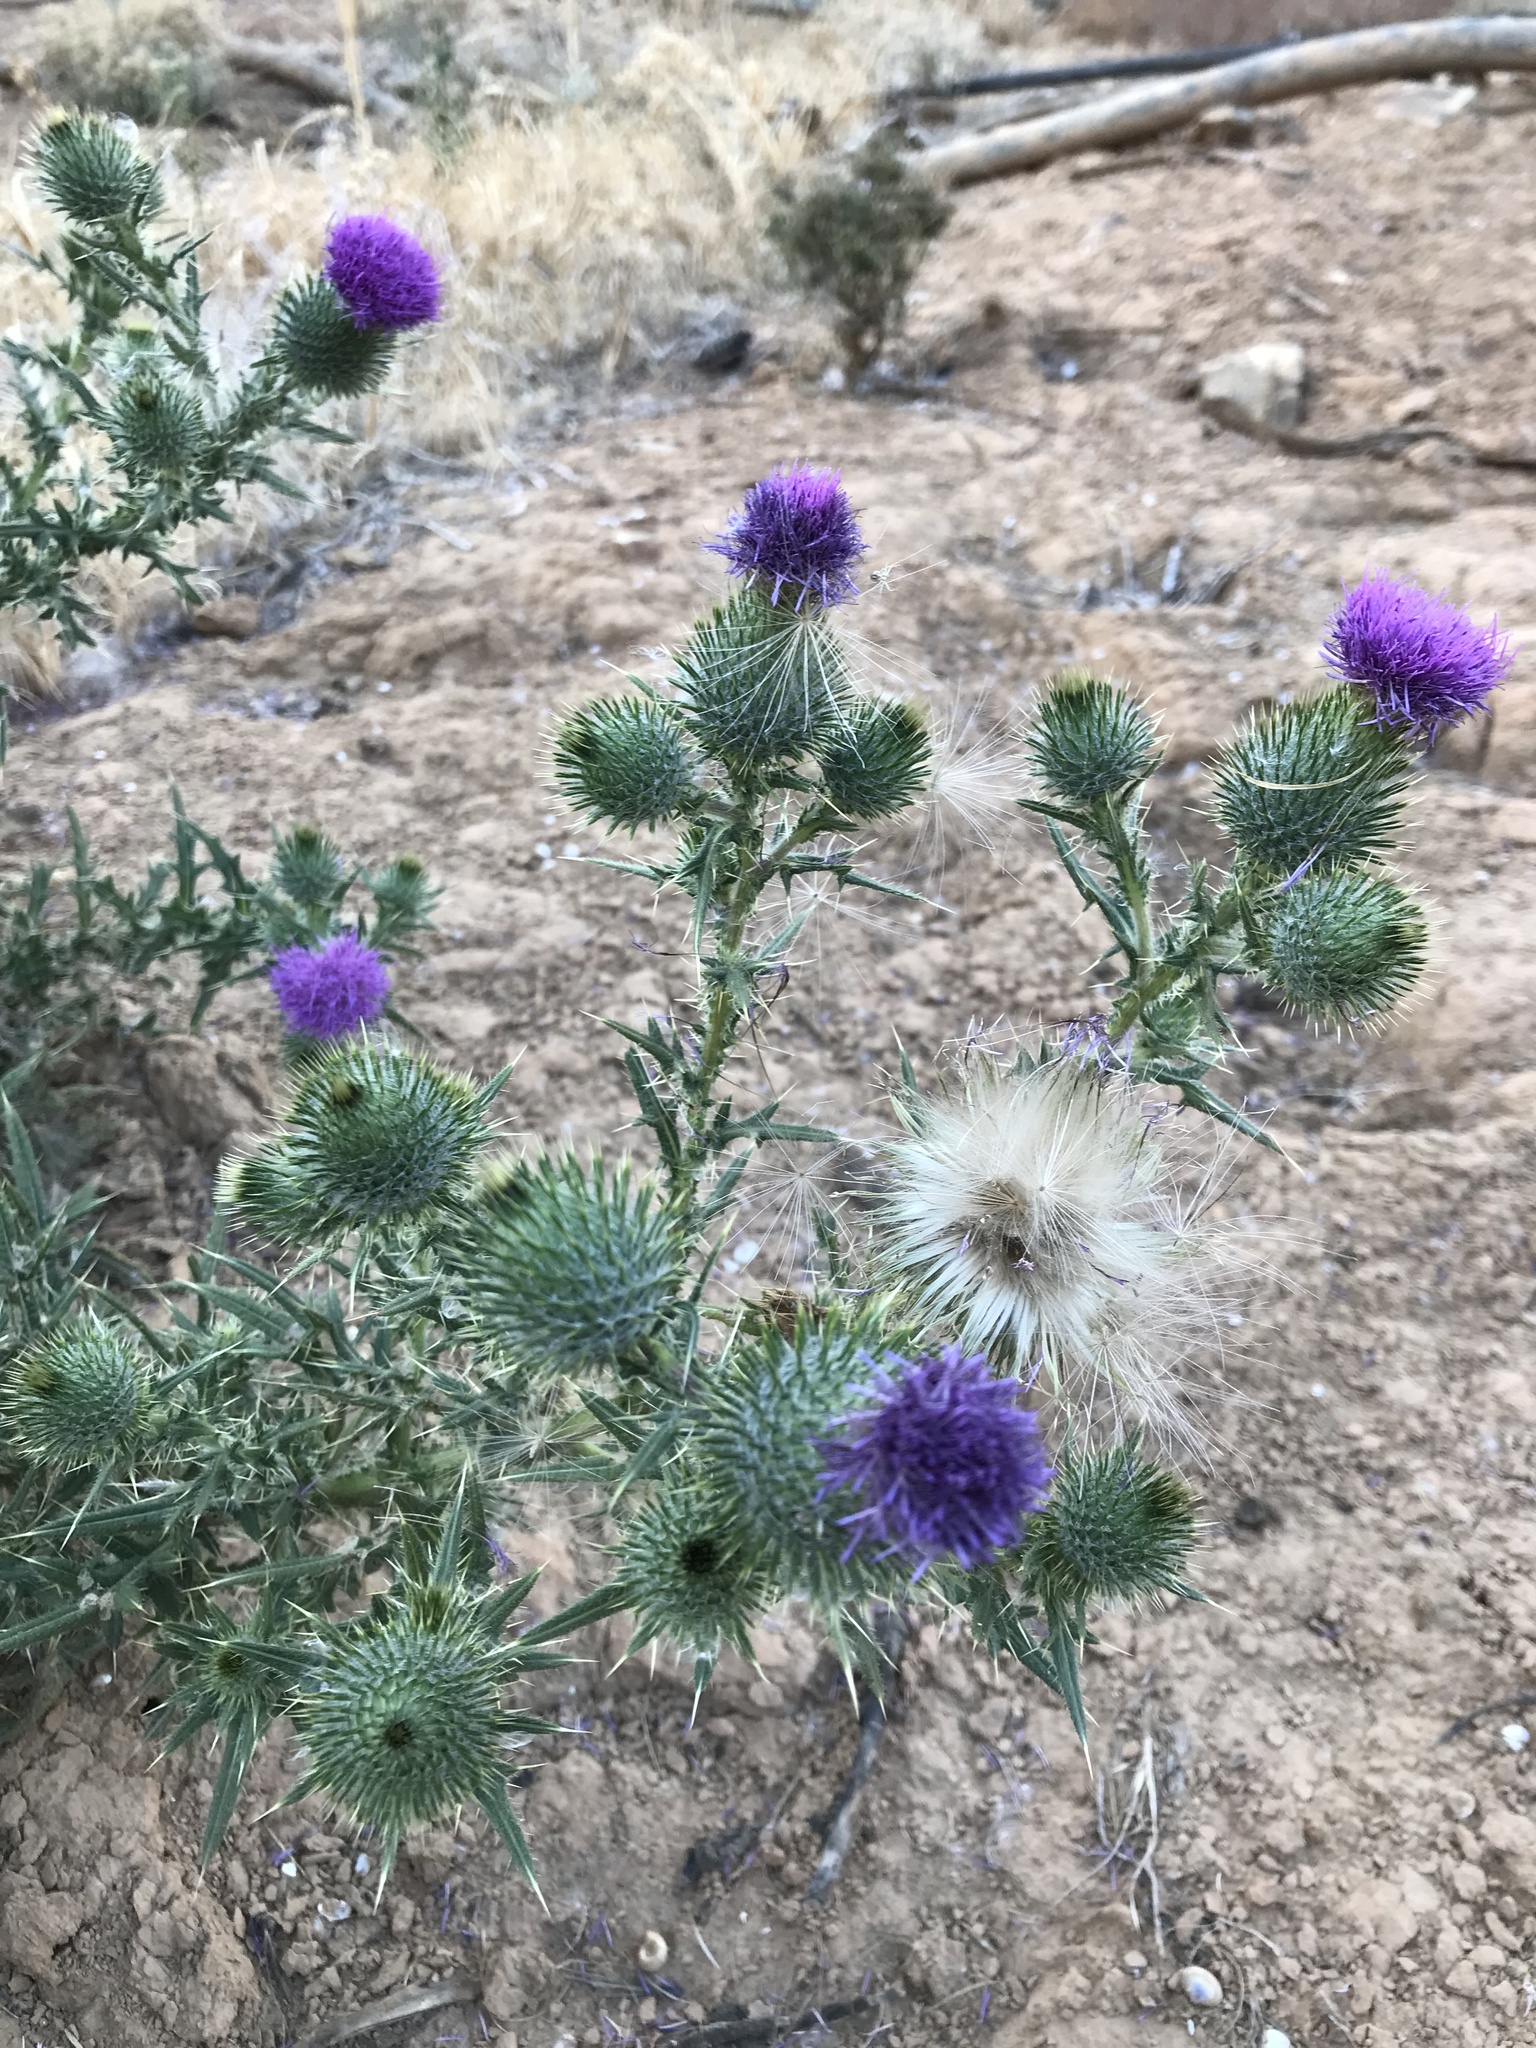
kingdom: Plantae
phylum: Tracheophyta
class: Magnoliopsida
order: Asterales
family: Asteraceae
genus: Cirsium
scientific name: Cirsium vulgare
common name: Bull thistle
